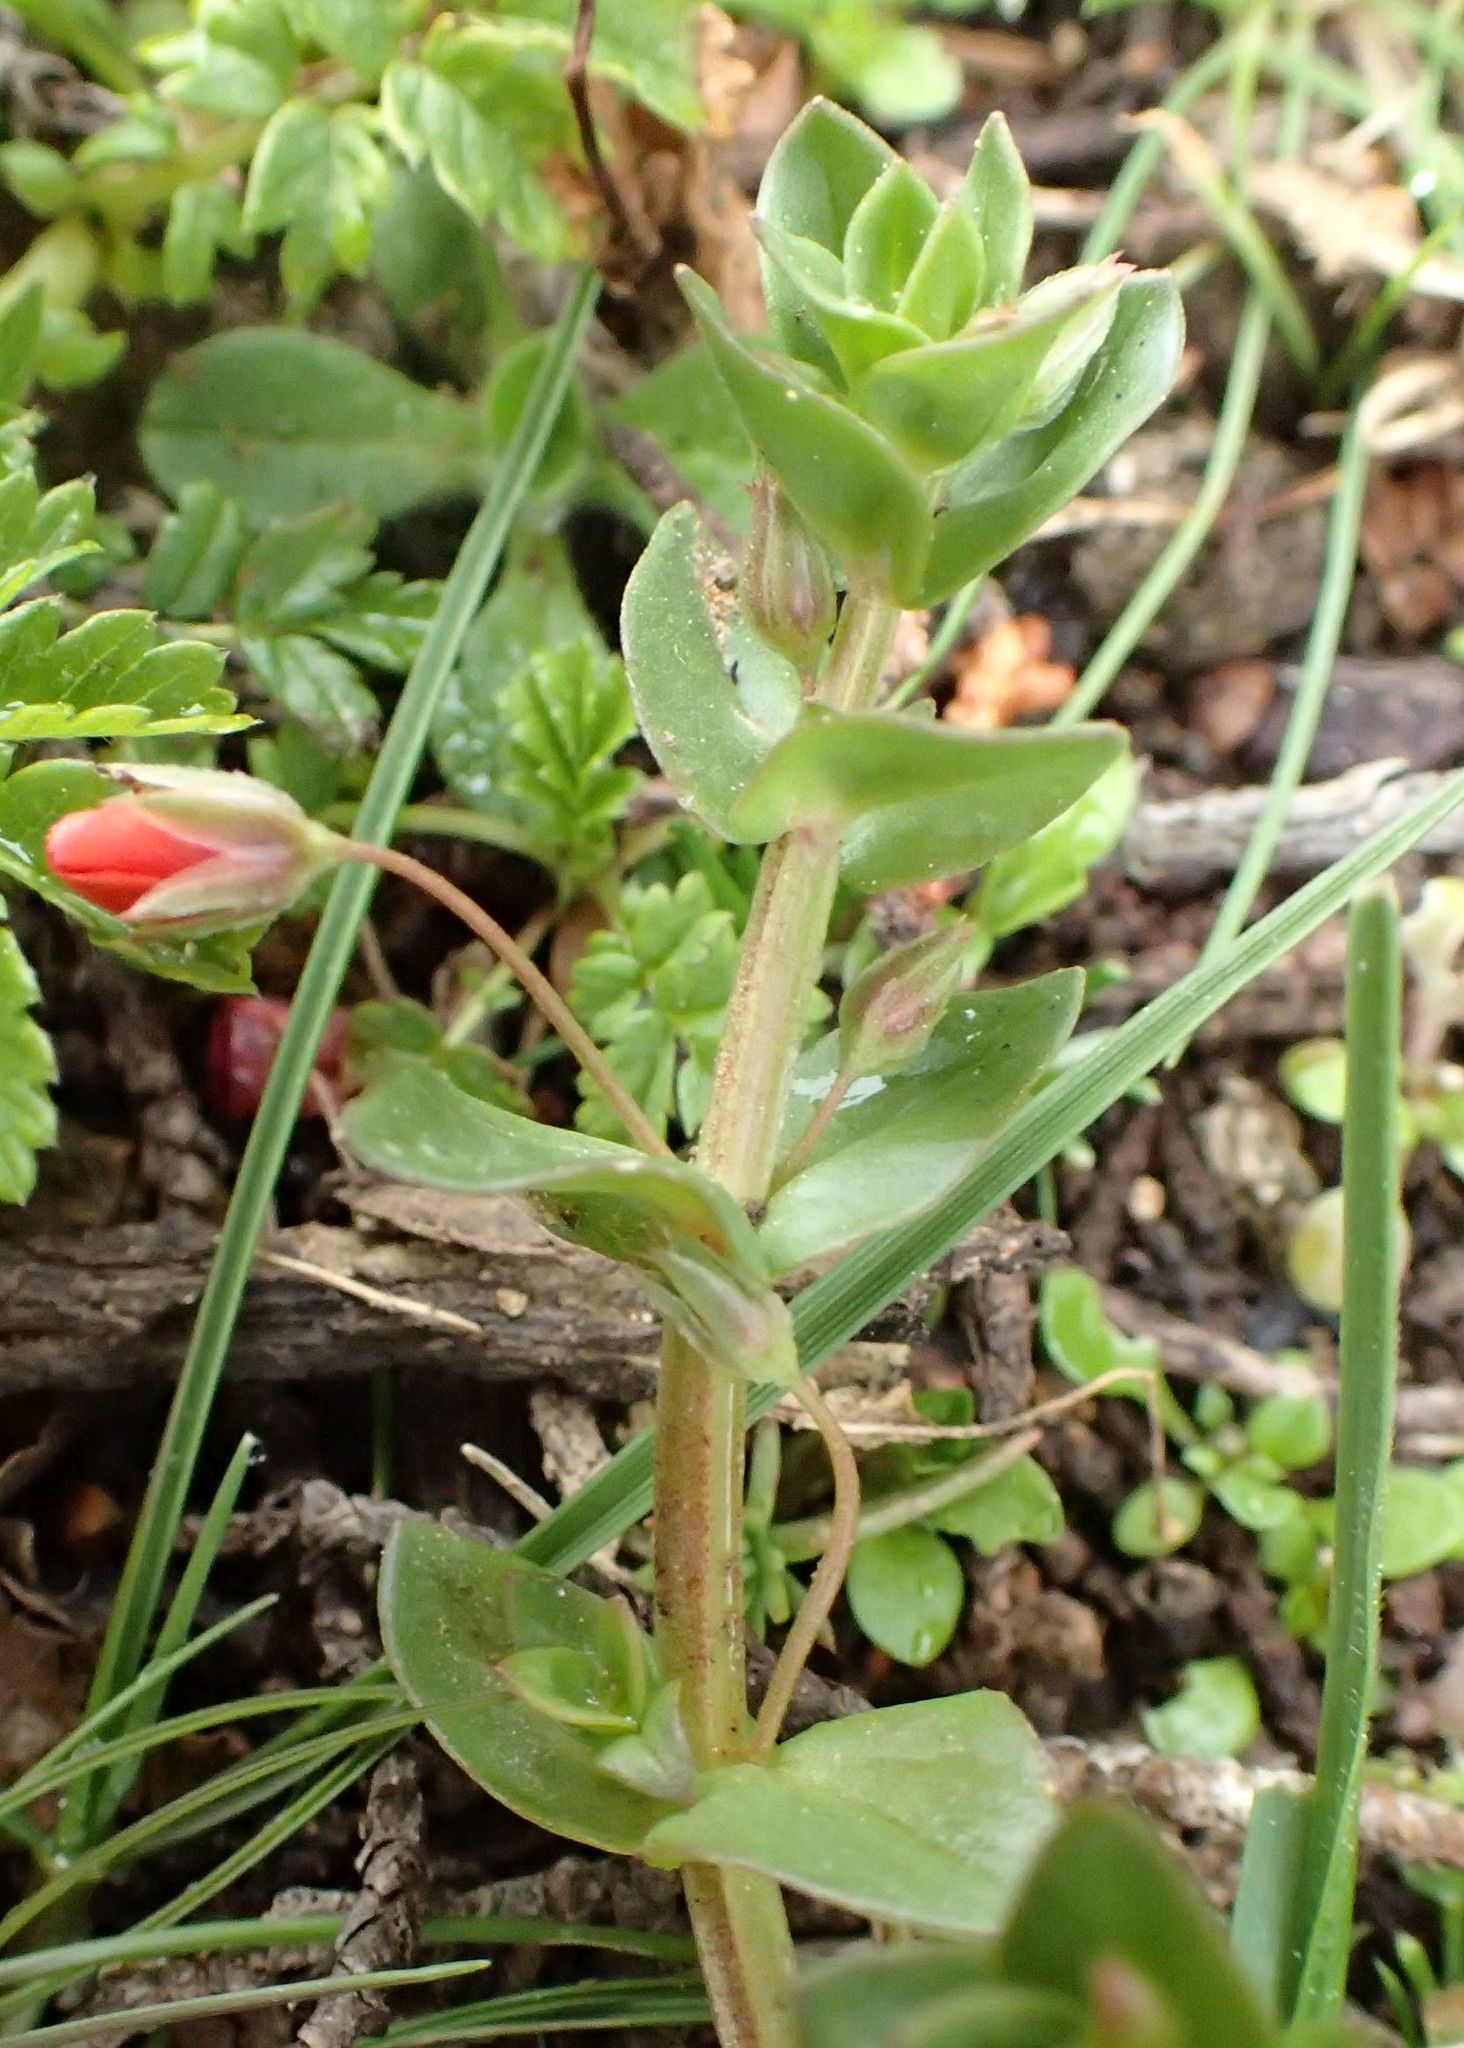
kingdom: Plantae
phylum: Tracheophyta
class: Magnoliopsida
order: Ericales
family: Primulaceae
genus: Lysimachia
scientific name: Lysimachia arvensis
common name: Scarlet pimpernel
